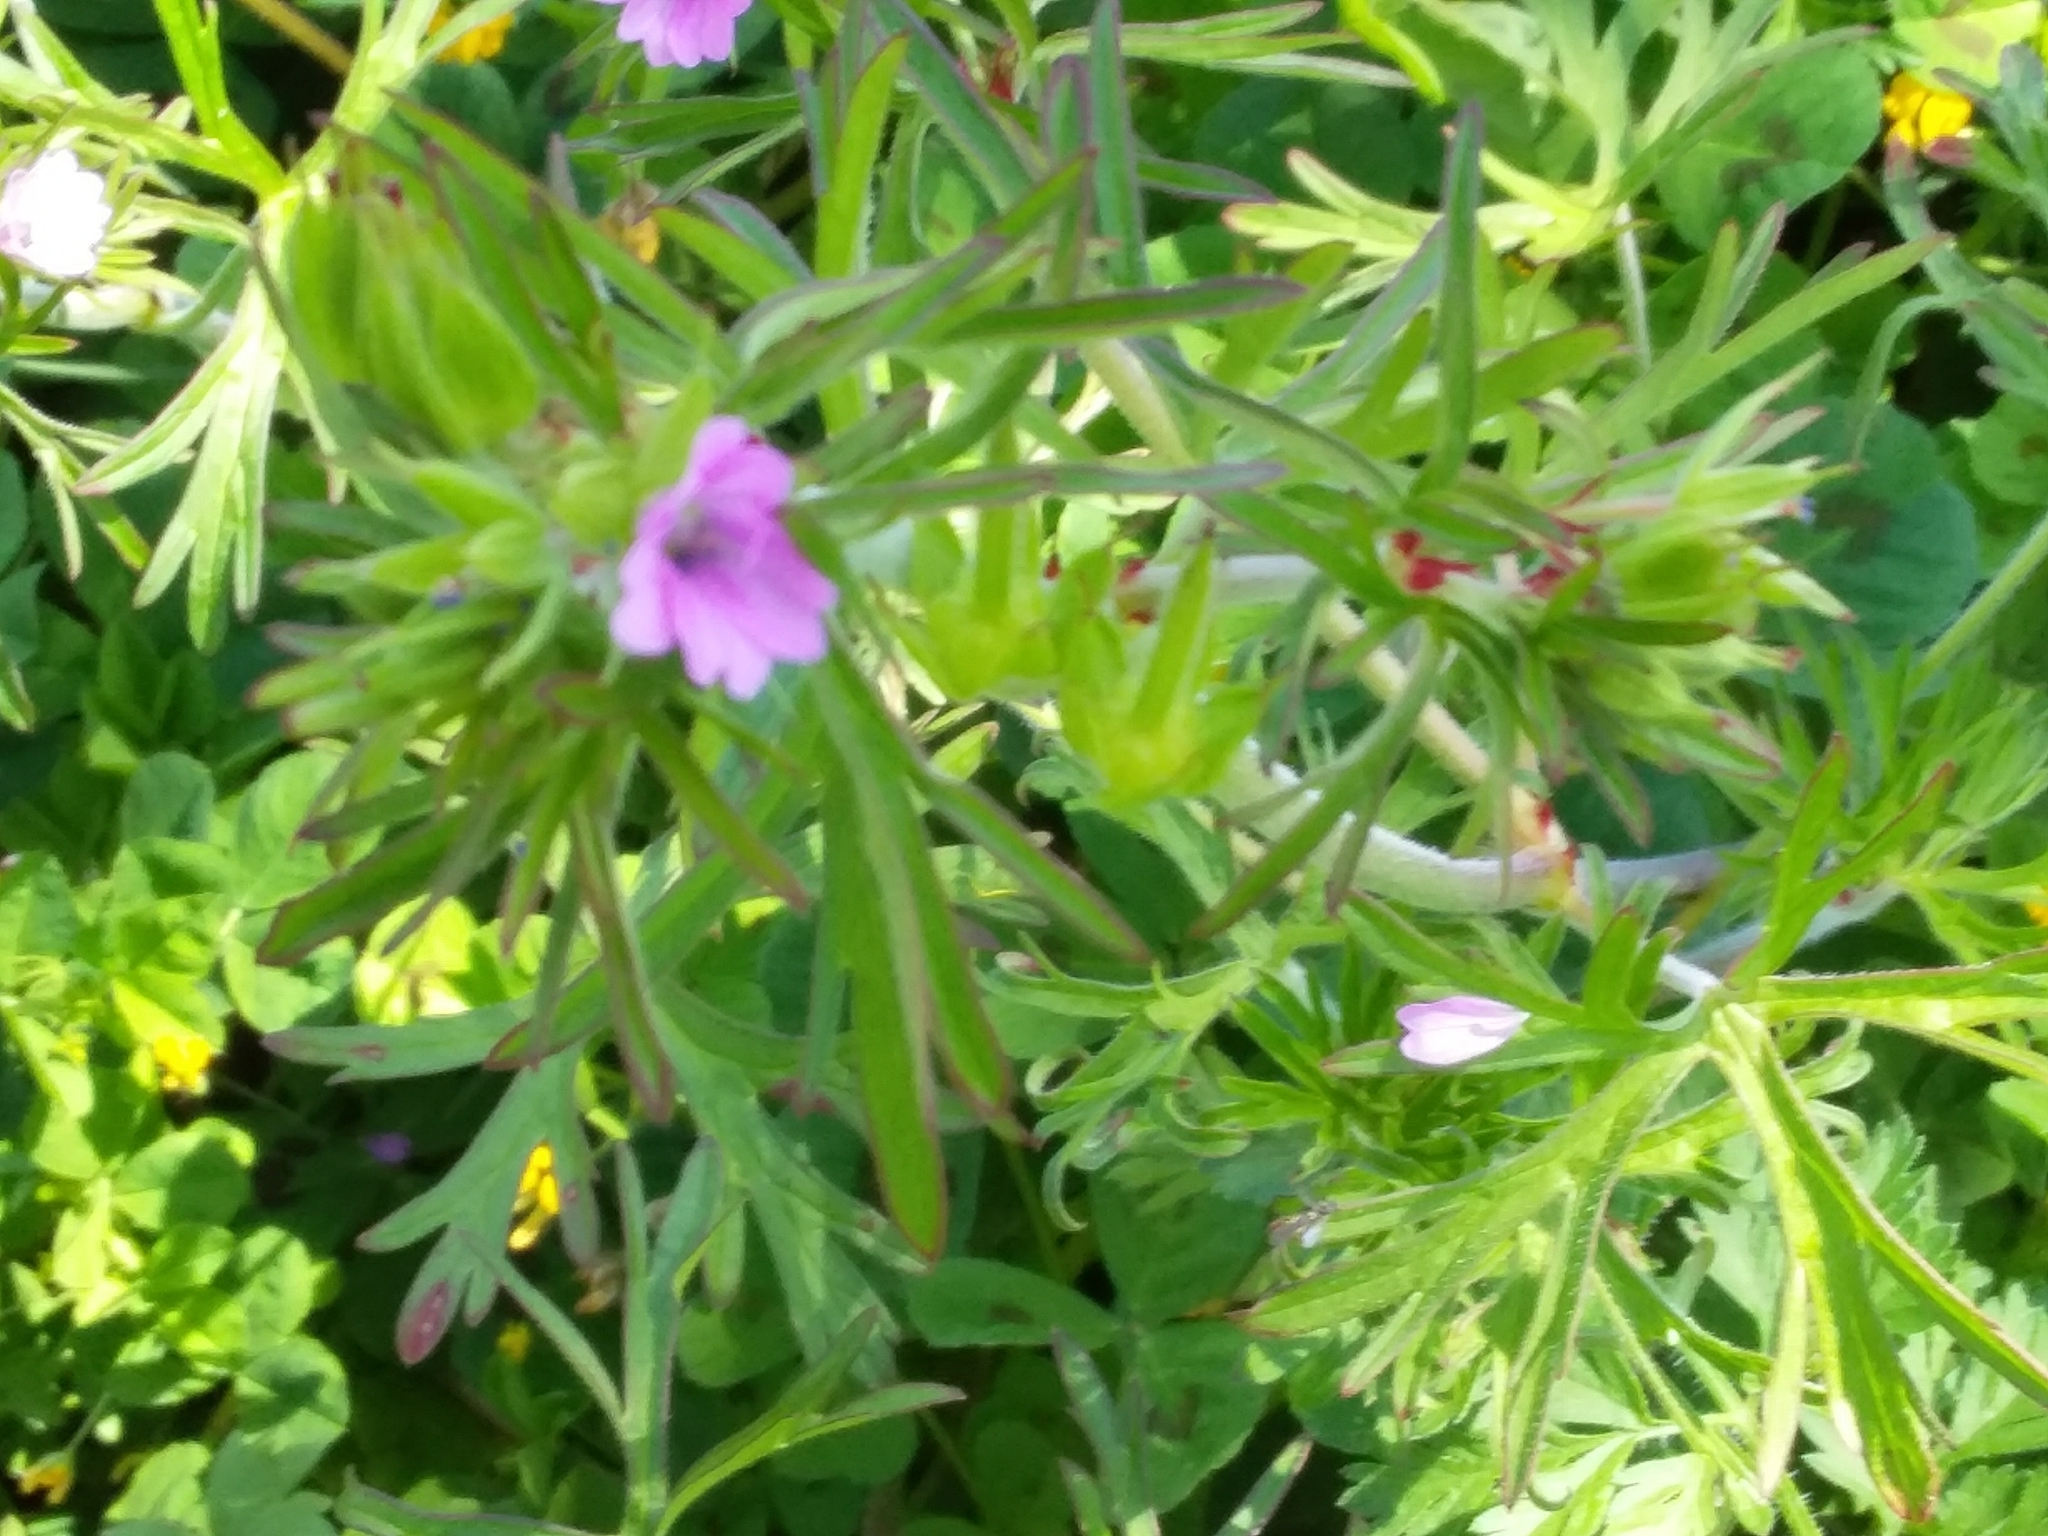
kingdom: Plantae
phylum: Tracheophyta
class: Magnoliopsida
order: Geraniales
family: Geraniaceae
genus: Geranium
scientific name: Geranium dissectum
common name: Cut-leaved crane's-bill
